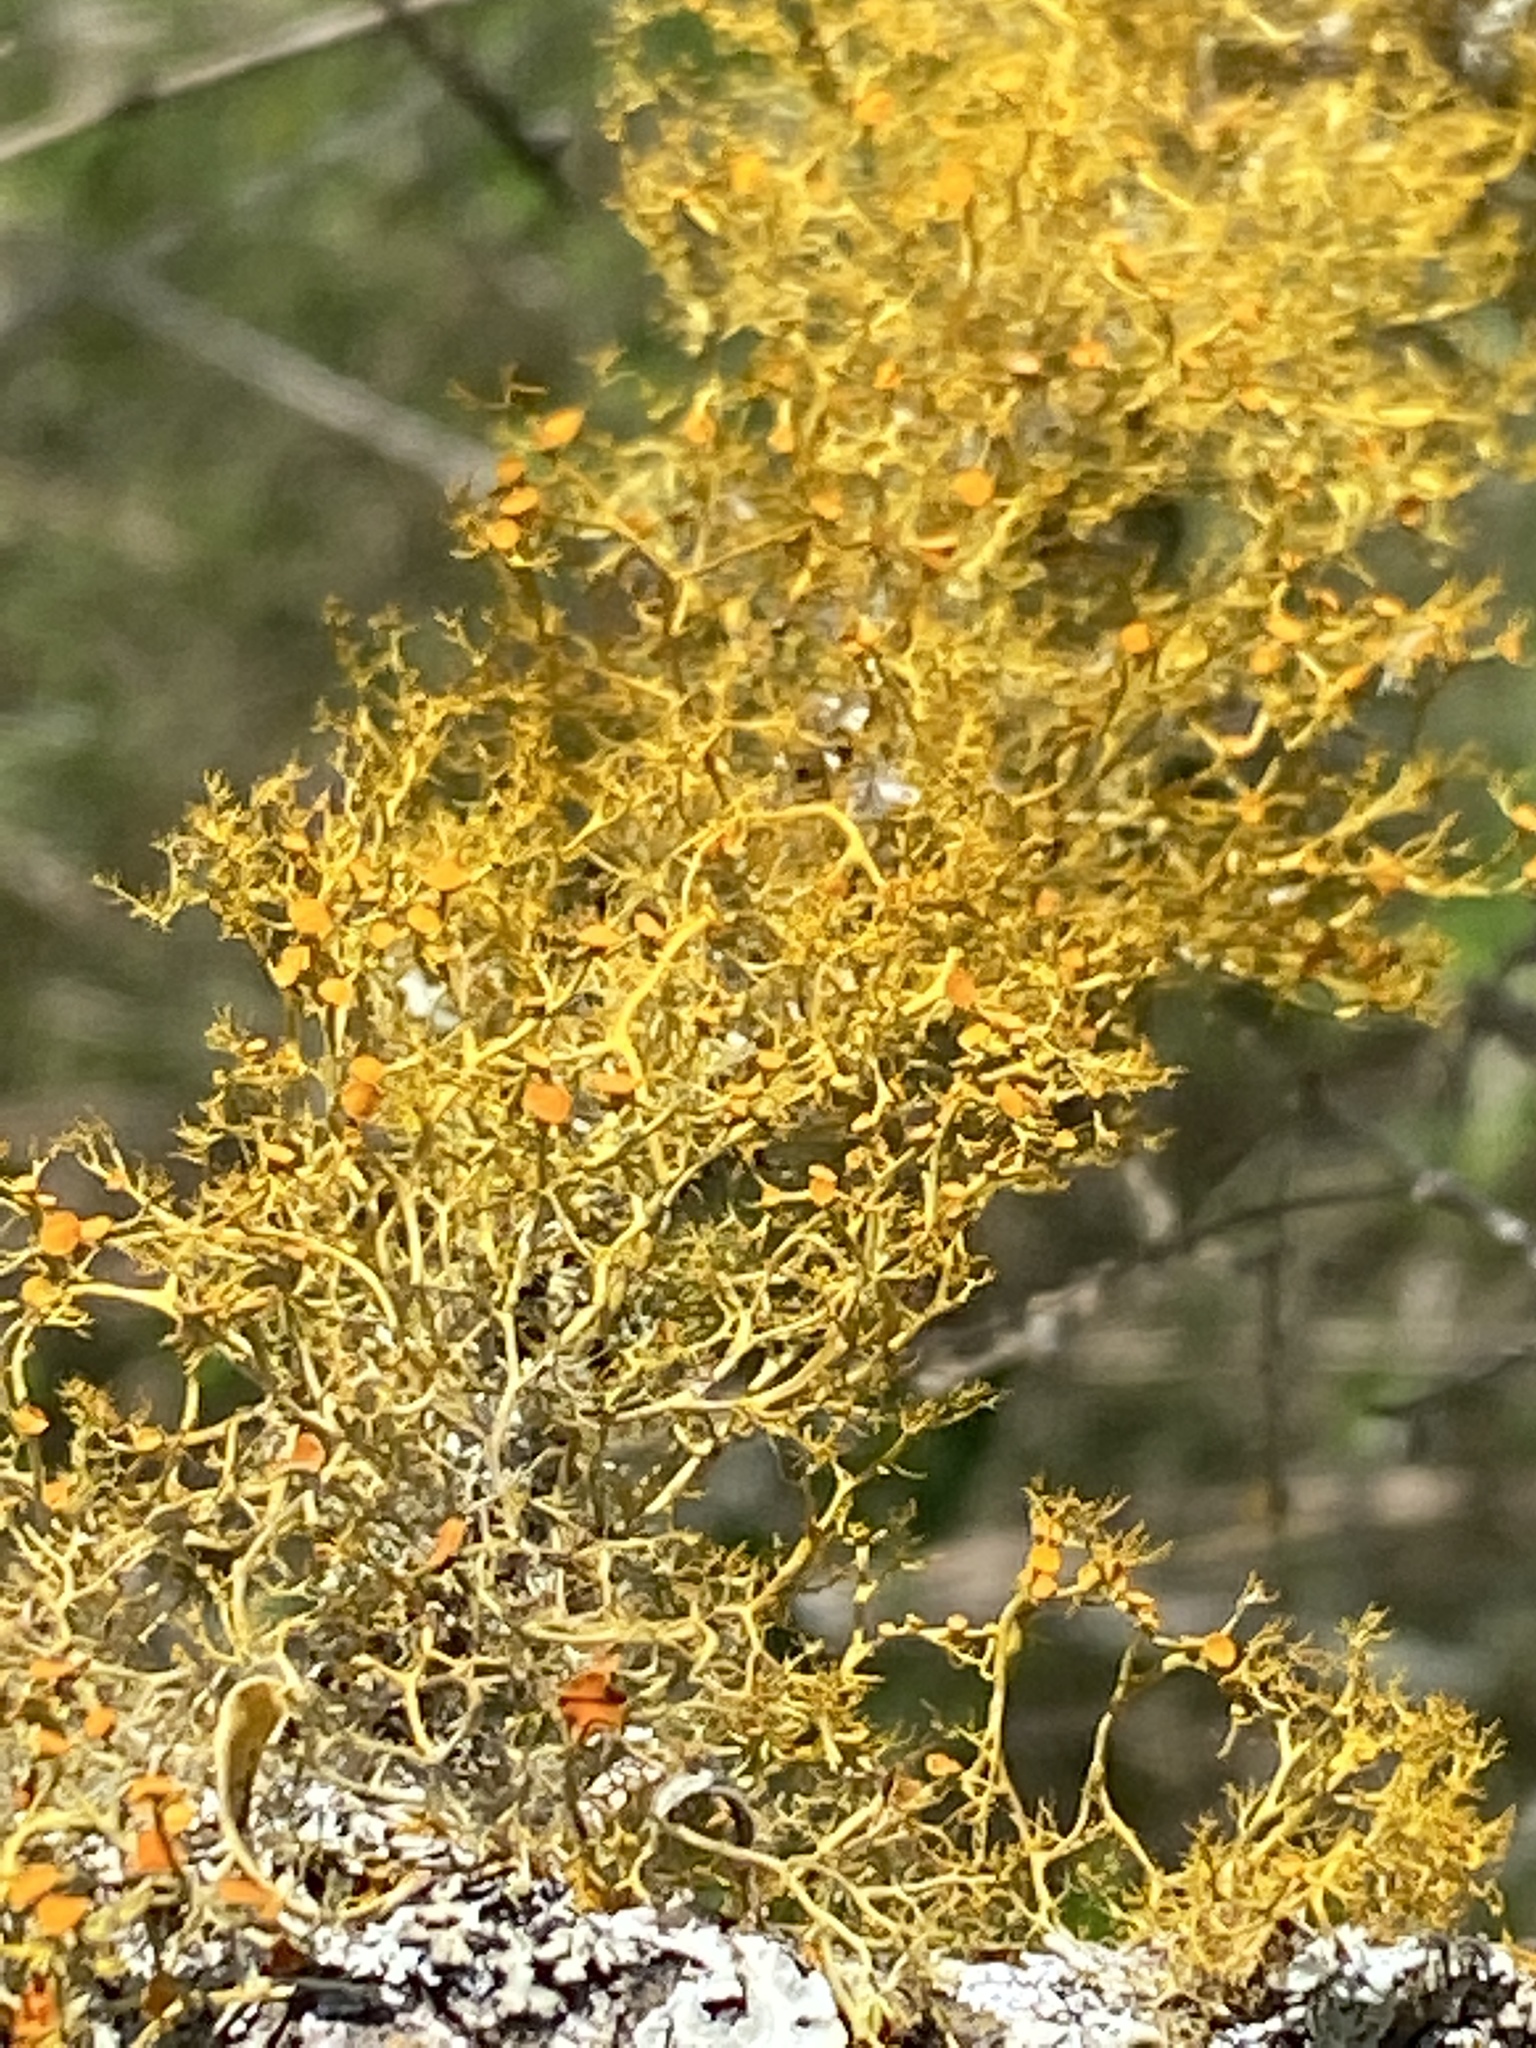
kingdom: Fungi
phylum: Ascomycota
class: Lecanoromycetes
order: Teloschistales
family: Teloschistaceae
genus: Teloschistes
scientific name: Teloschistes exilis
